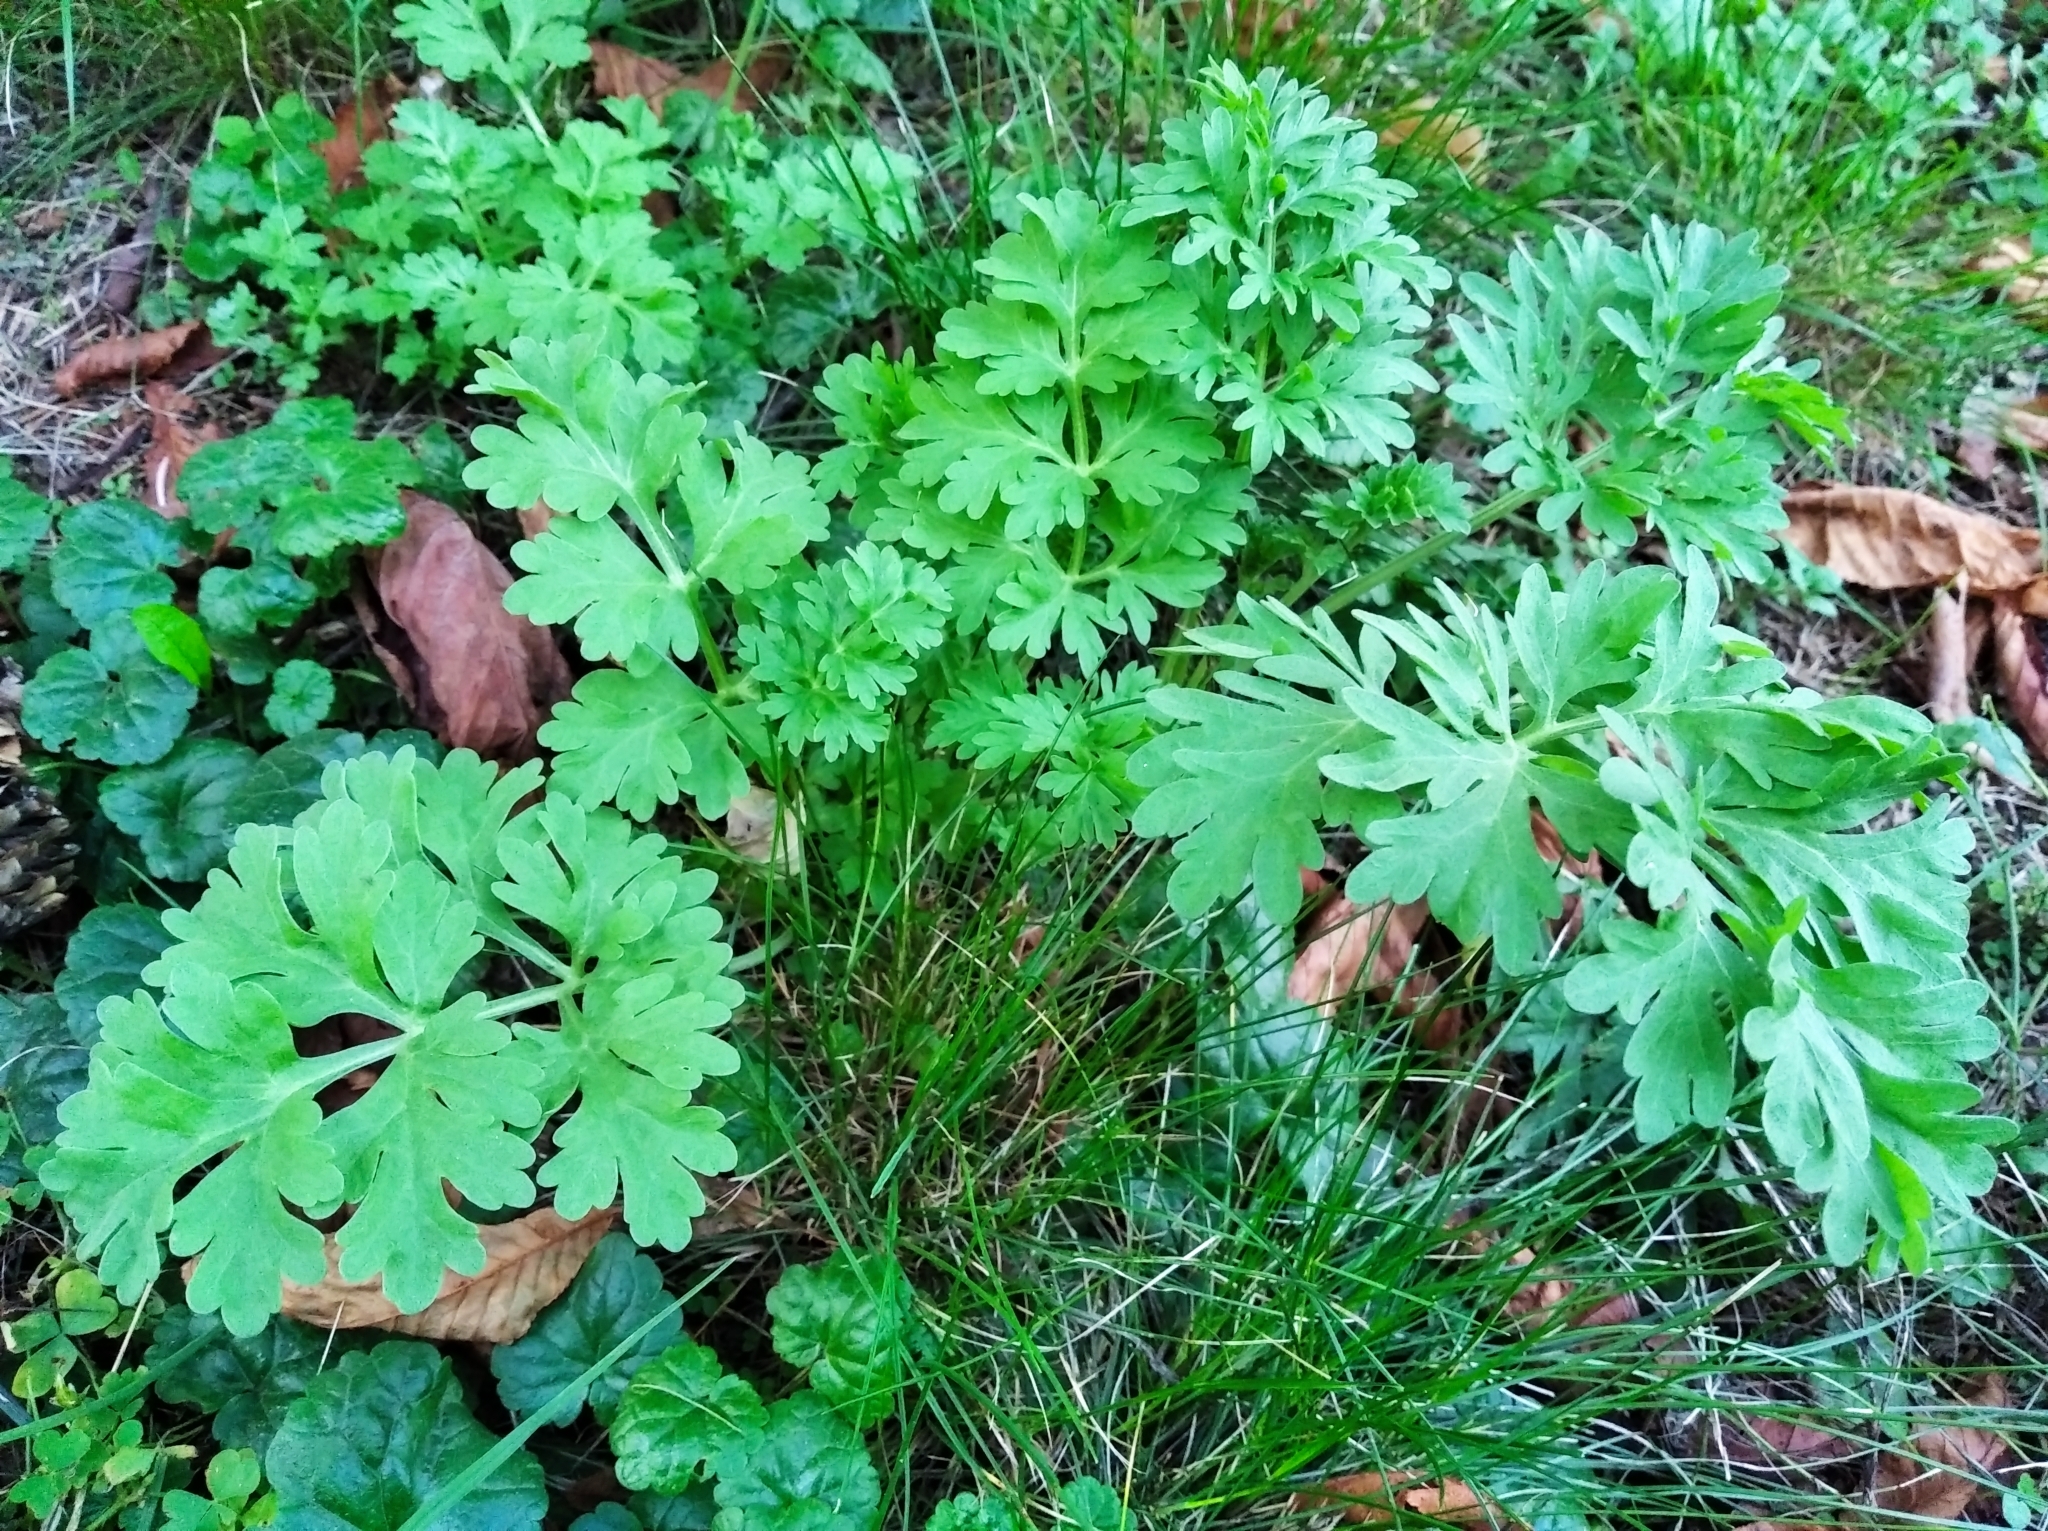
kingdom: Plantae
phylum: Tracheophyta
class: Magnoliopsida
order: Asterales
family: Asteraceae
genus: Artemisia
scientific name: Artemisia absinthium
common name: Wormwood
